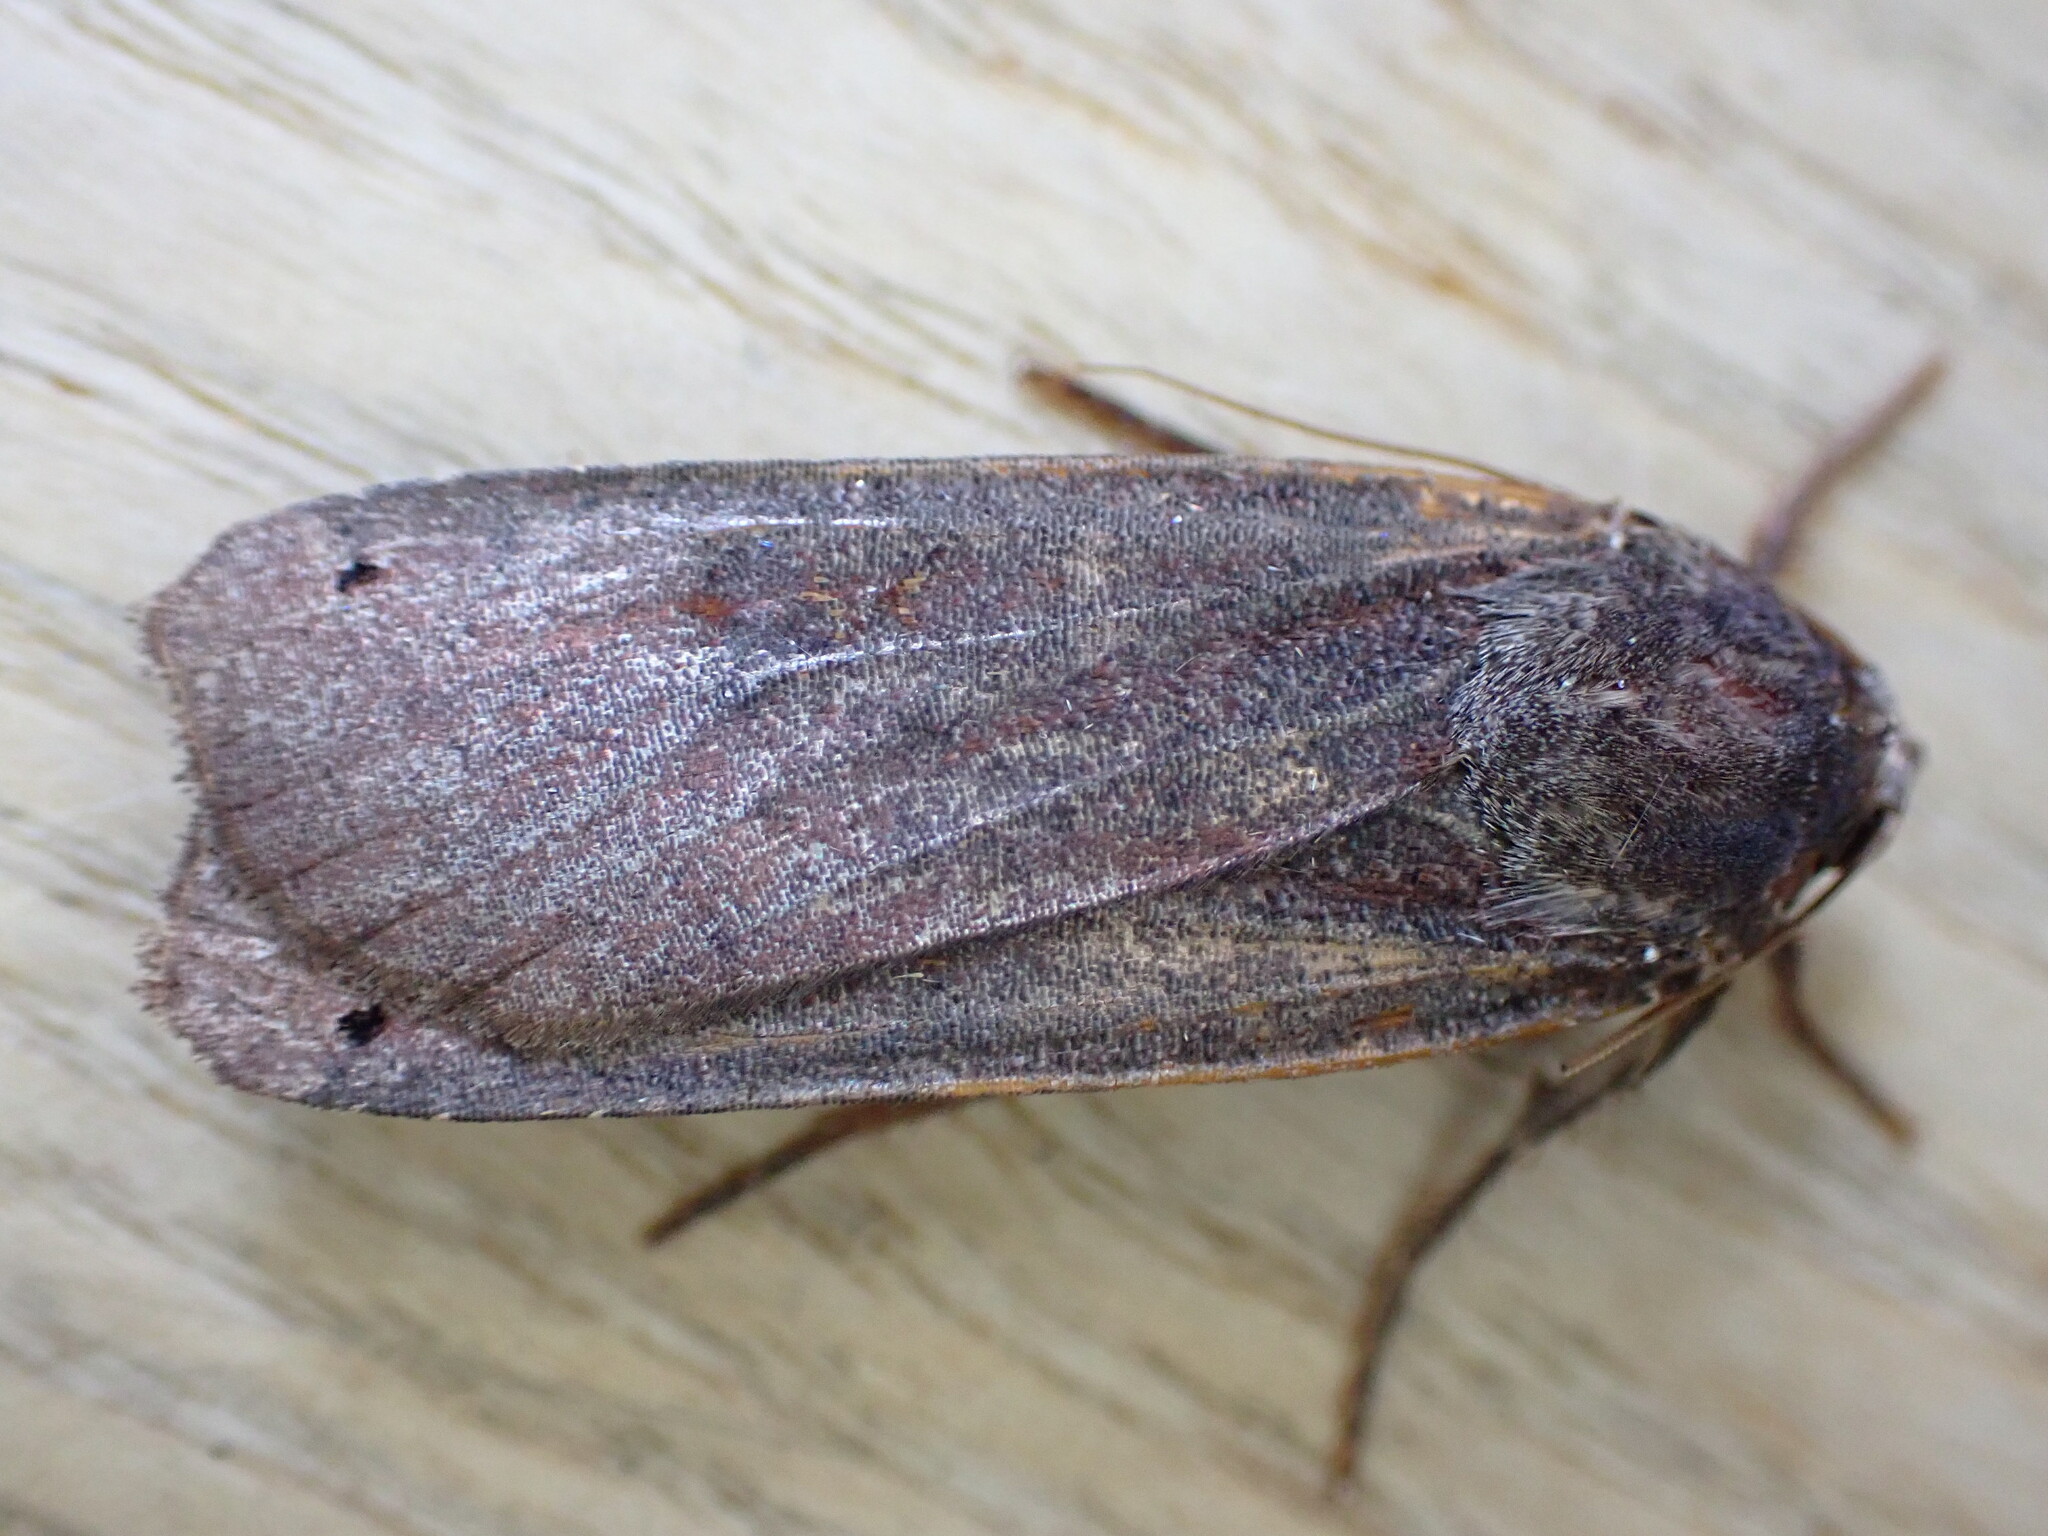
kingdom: Animalia
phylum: Arthropoda
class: Insecta
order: Lepidoptera
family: Noctuidae
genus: Noctua
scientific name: Noctua pronuba
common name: Large yellow underwing
